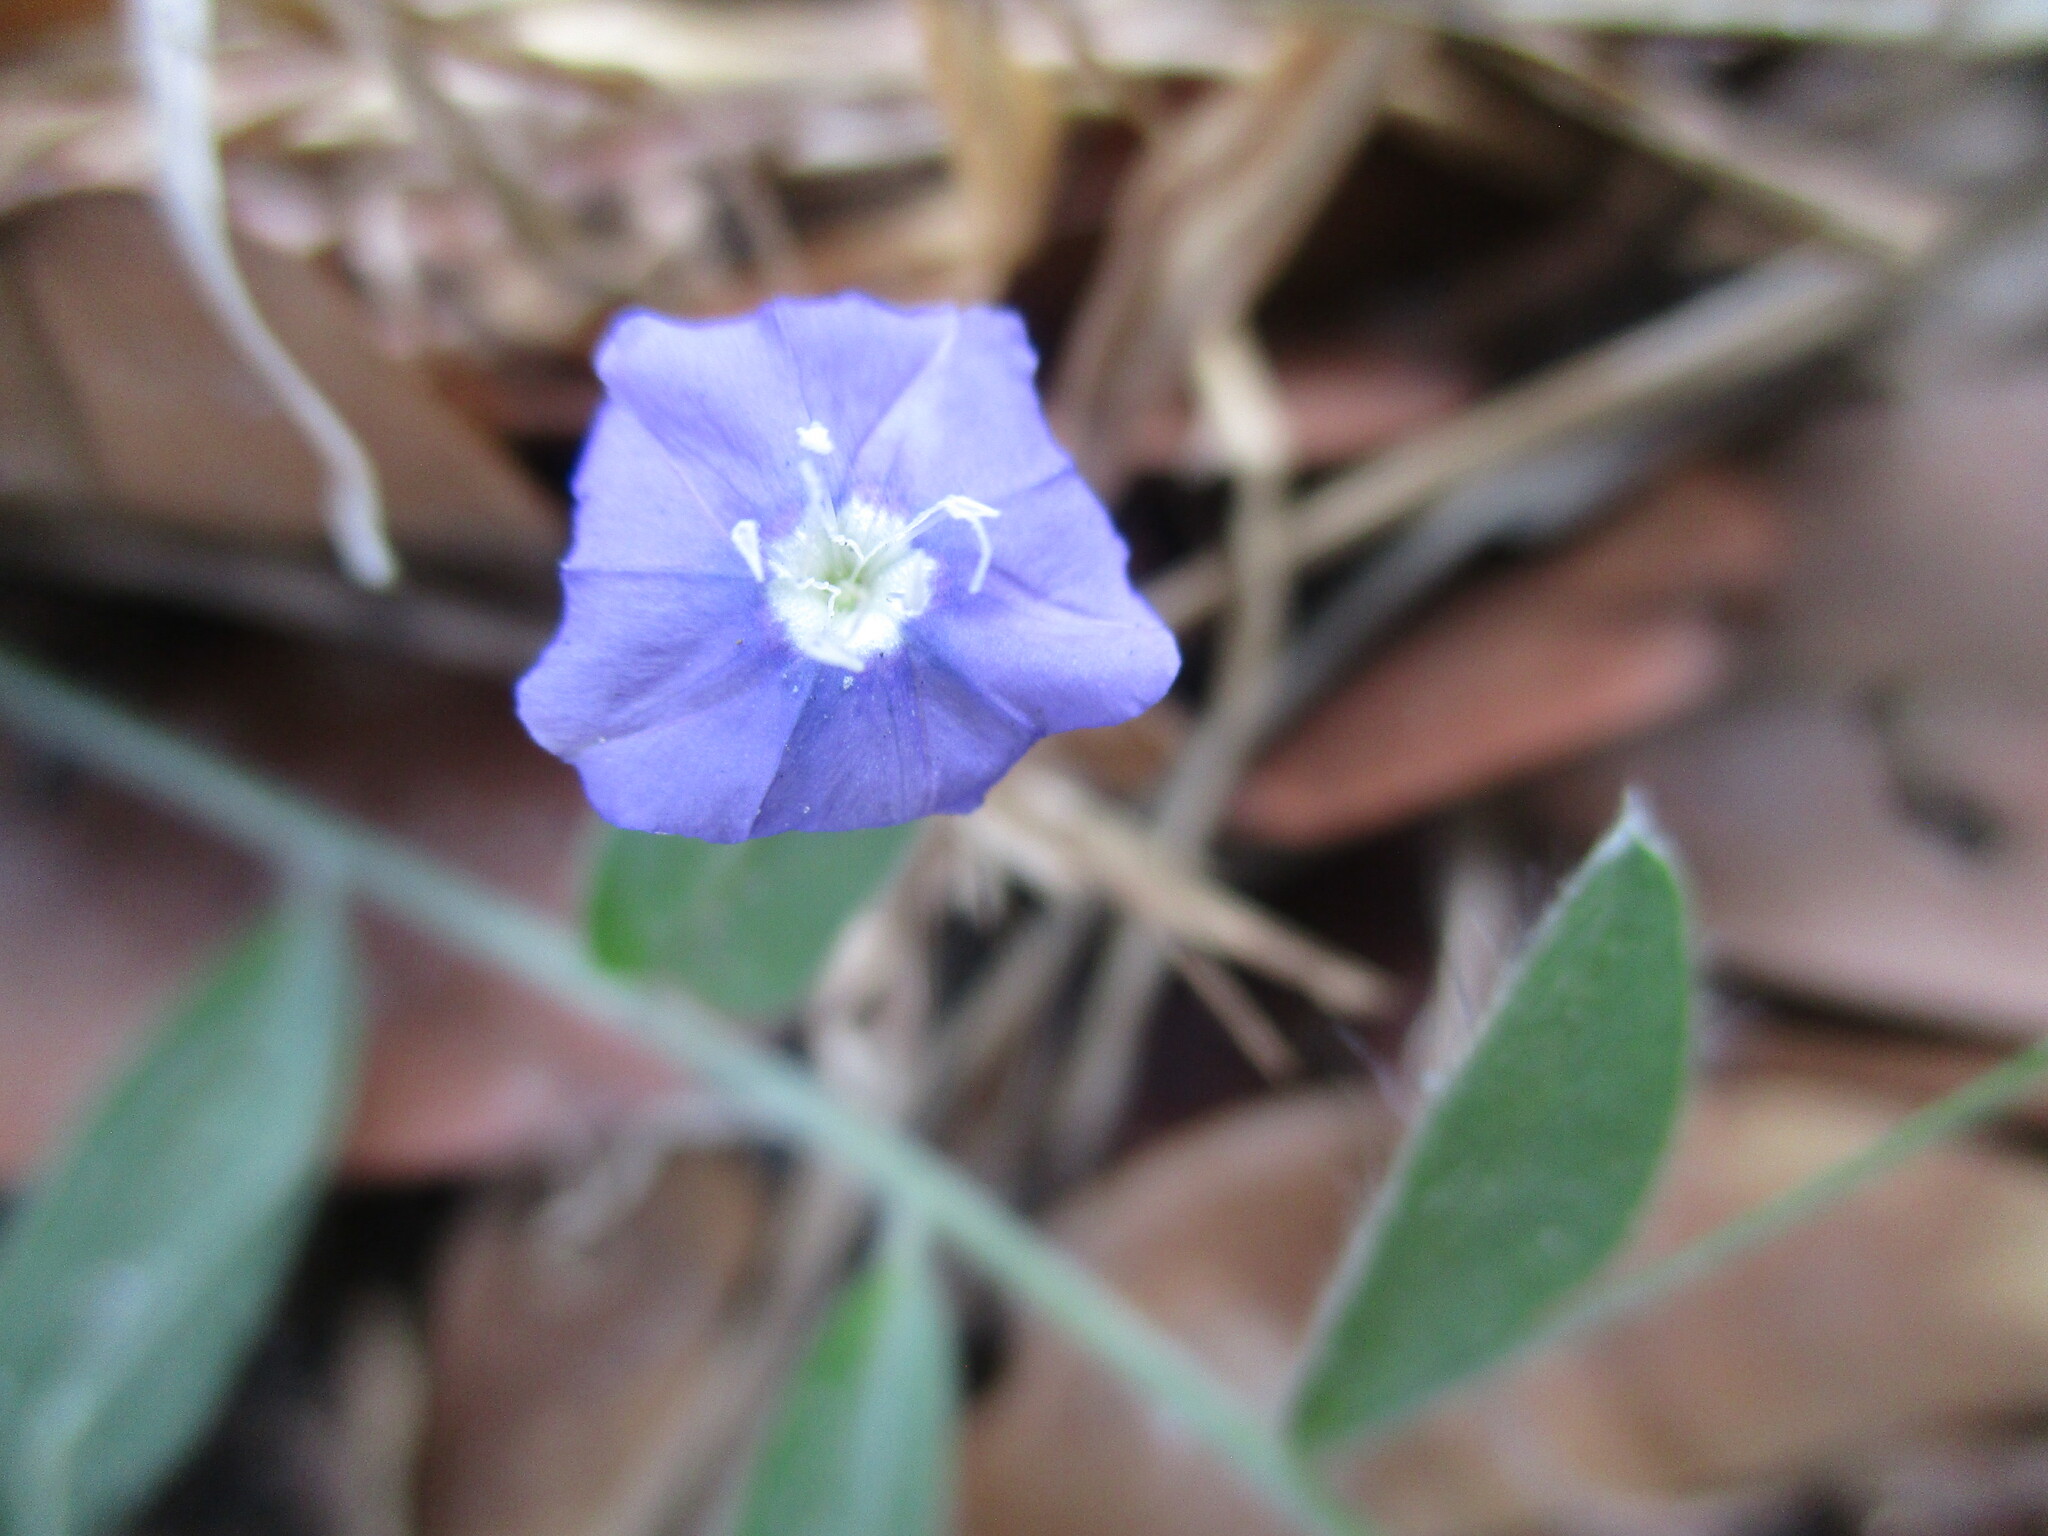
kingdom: Plantae
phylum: Tracheophyta
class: Magnoliopsida
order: Solanales
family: Convolvulaceae
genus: Evolvulus
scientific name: Evolvulus alsinoides
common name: Slender dwarf morning-glory
